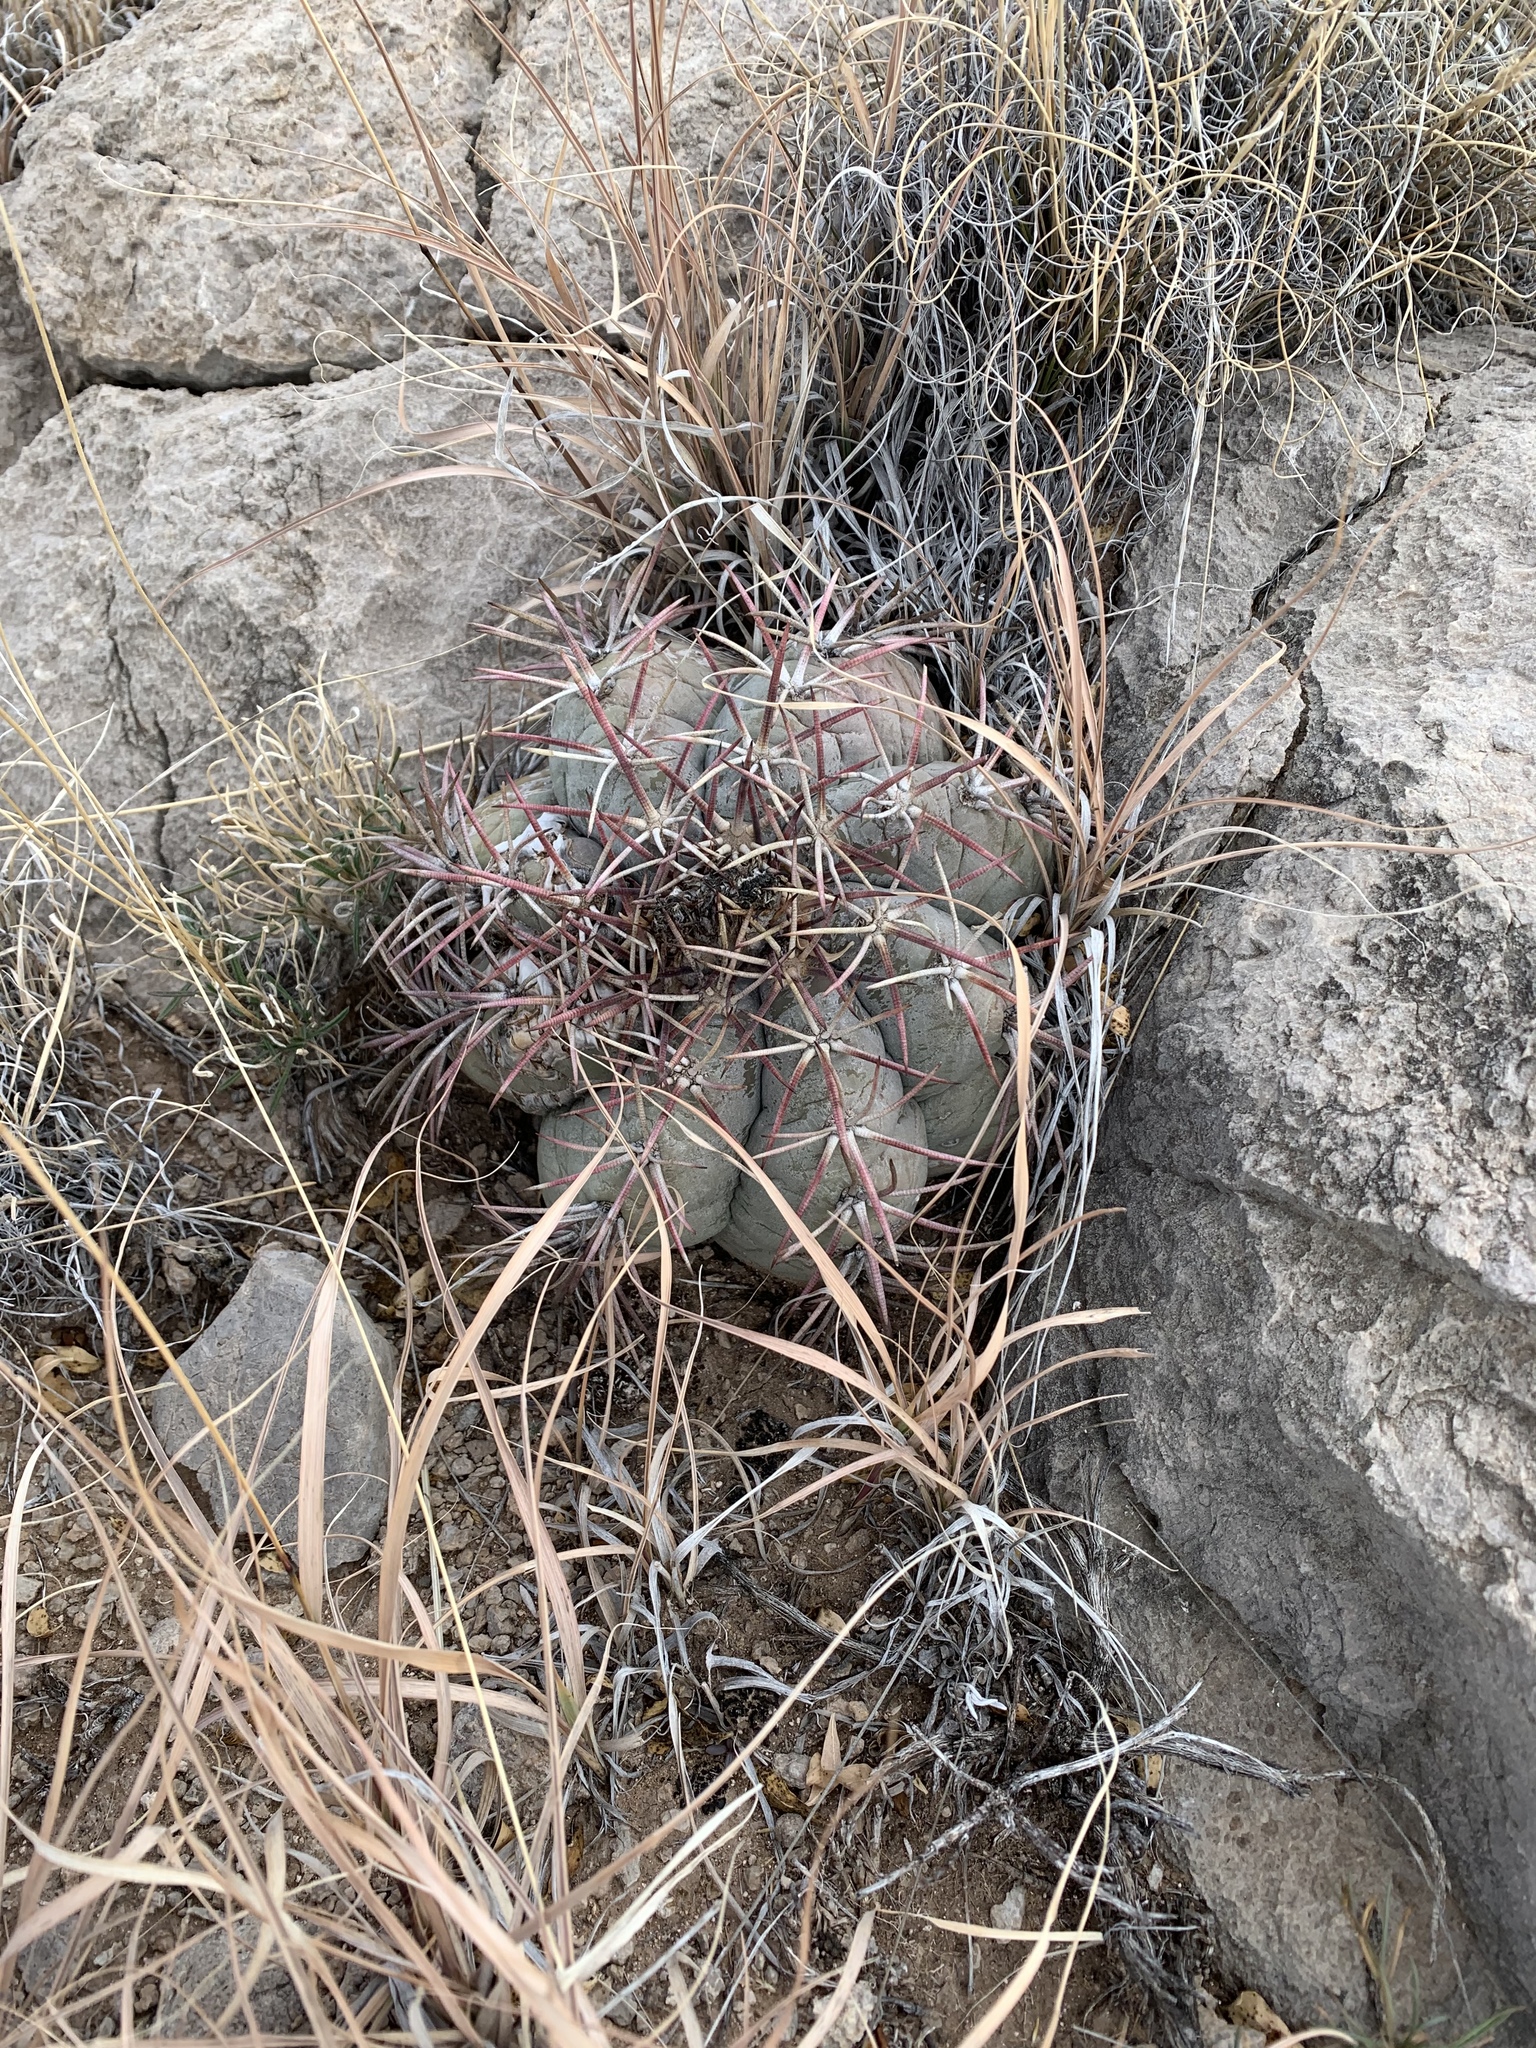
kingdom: Plantae
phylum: Tracheophyta
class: Magnoliopsida
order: Caryophyllales
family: Cactaceae
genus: Echinocactus
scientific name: Echinocactus horizonthalonius
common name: Devilshead
